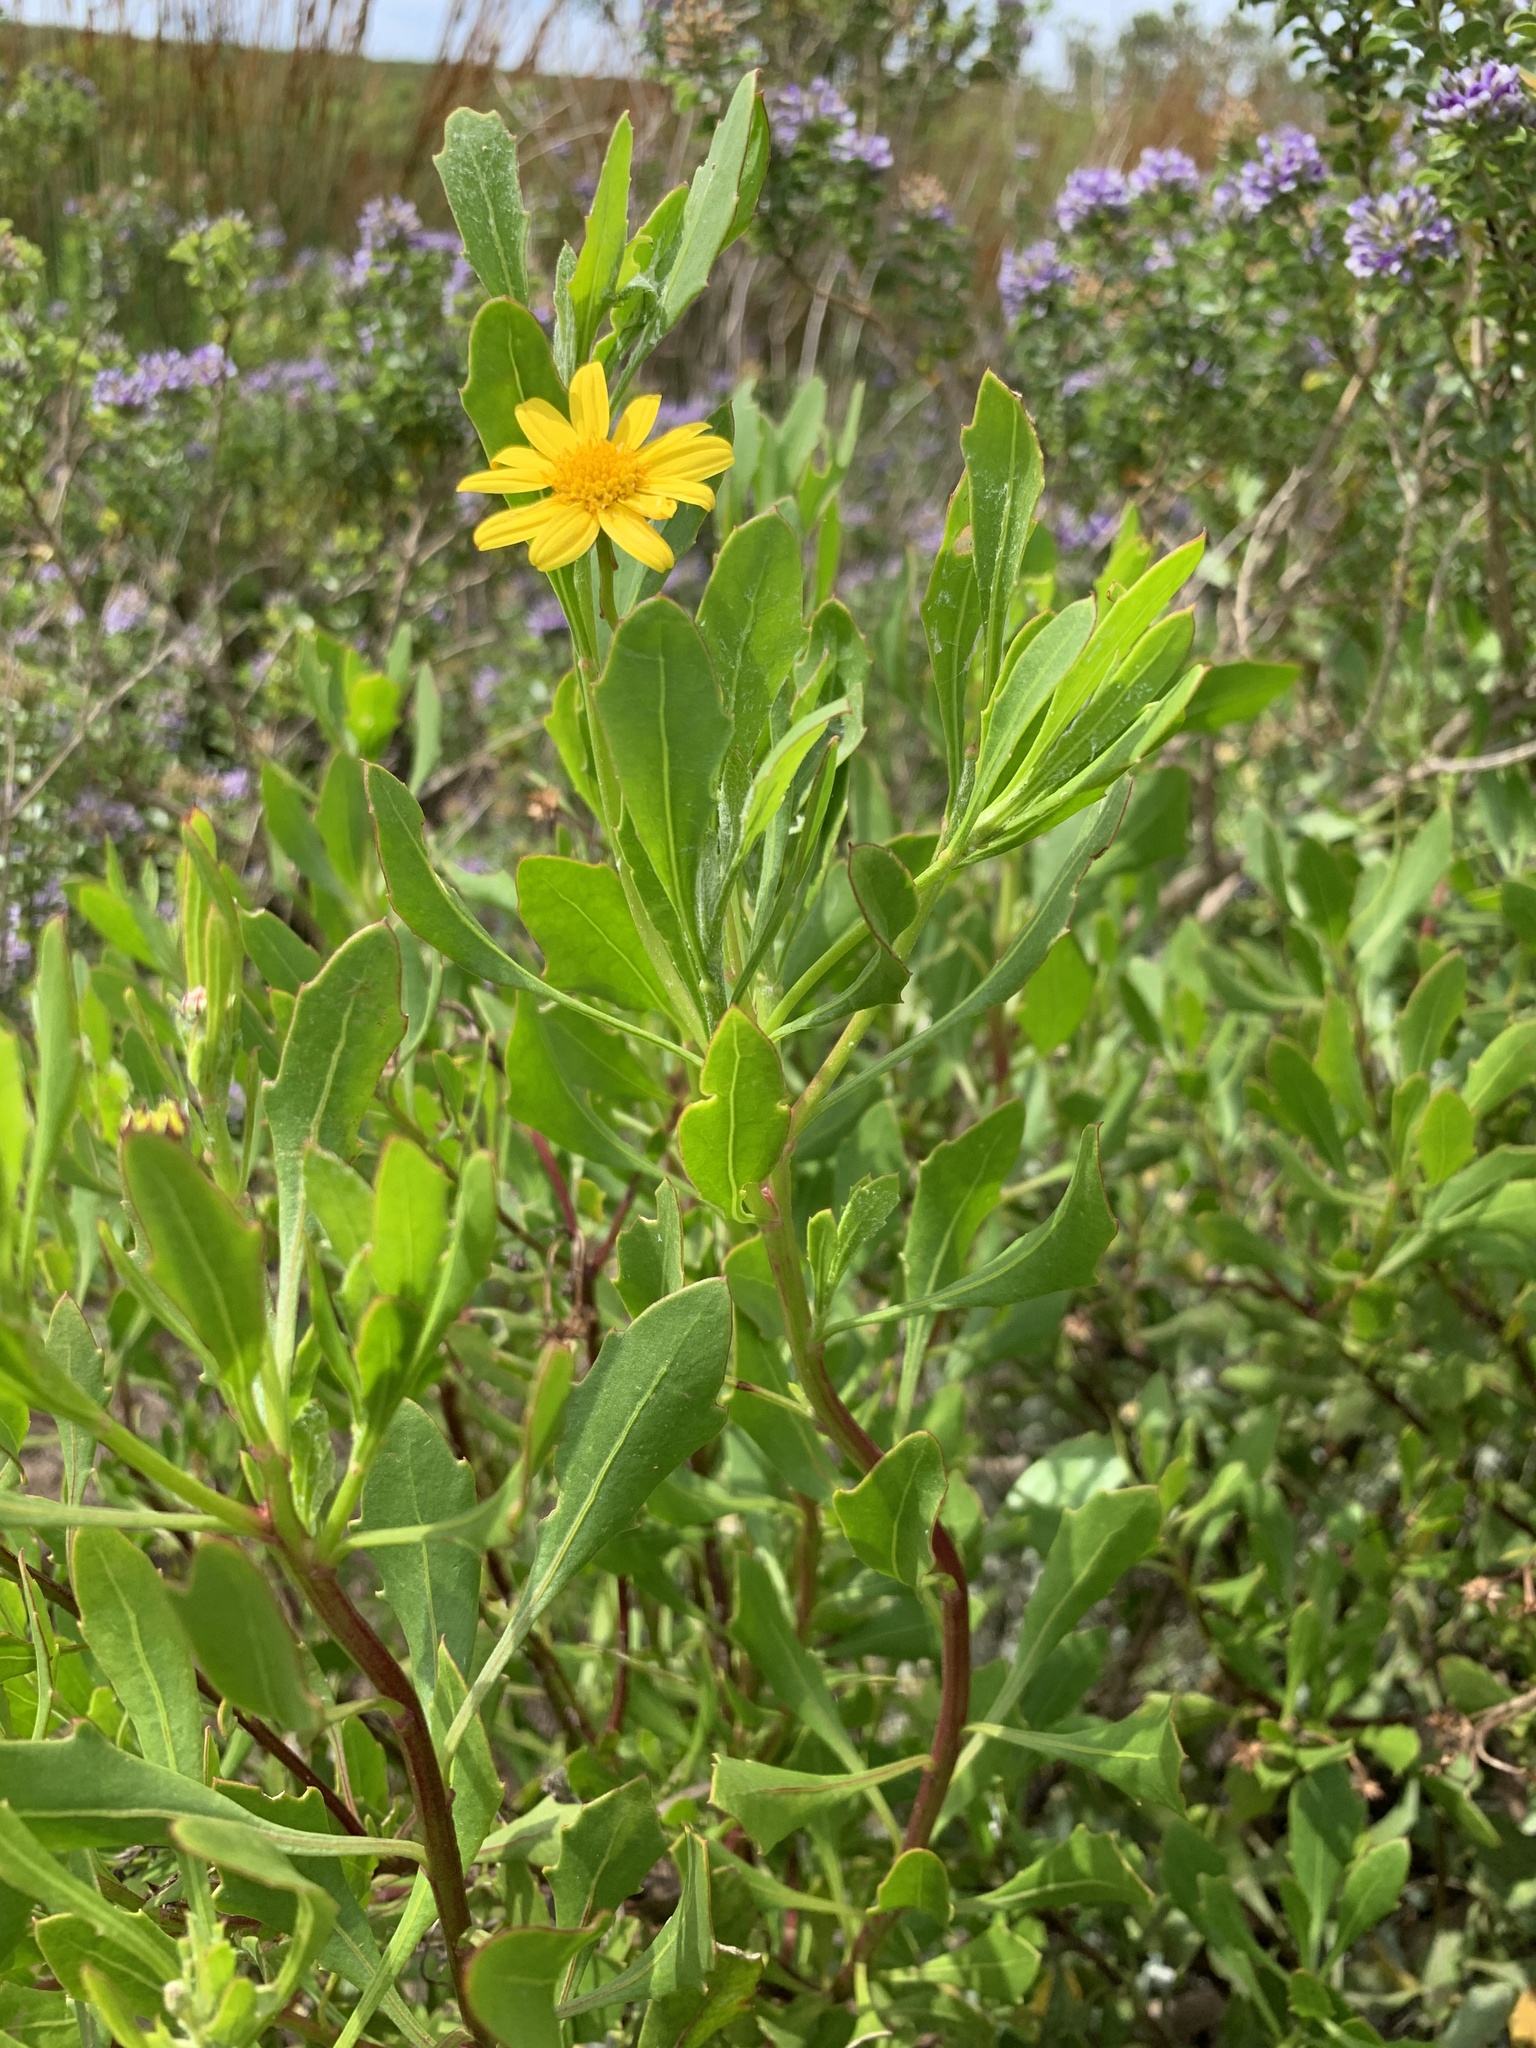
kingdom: Plantae
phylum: Tracheophyta
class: Magnoliopsida
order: Asterales
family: Asteraceae
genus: Osteospermum
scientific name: Osteospermum moniliferum
